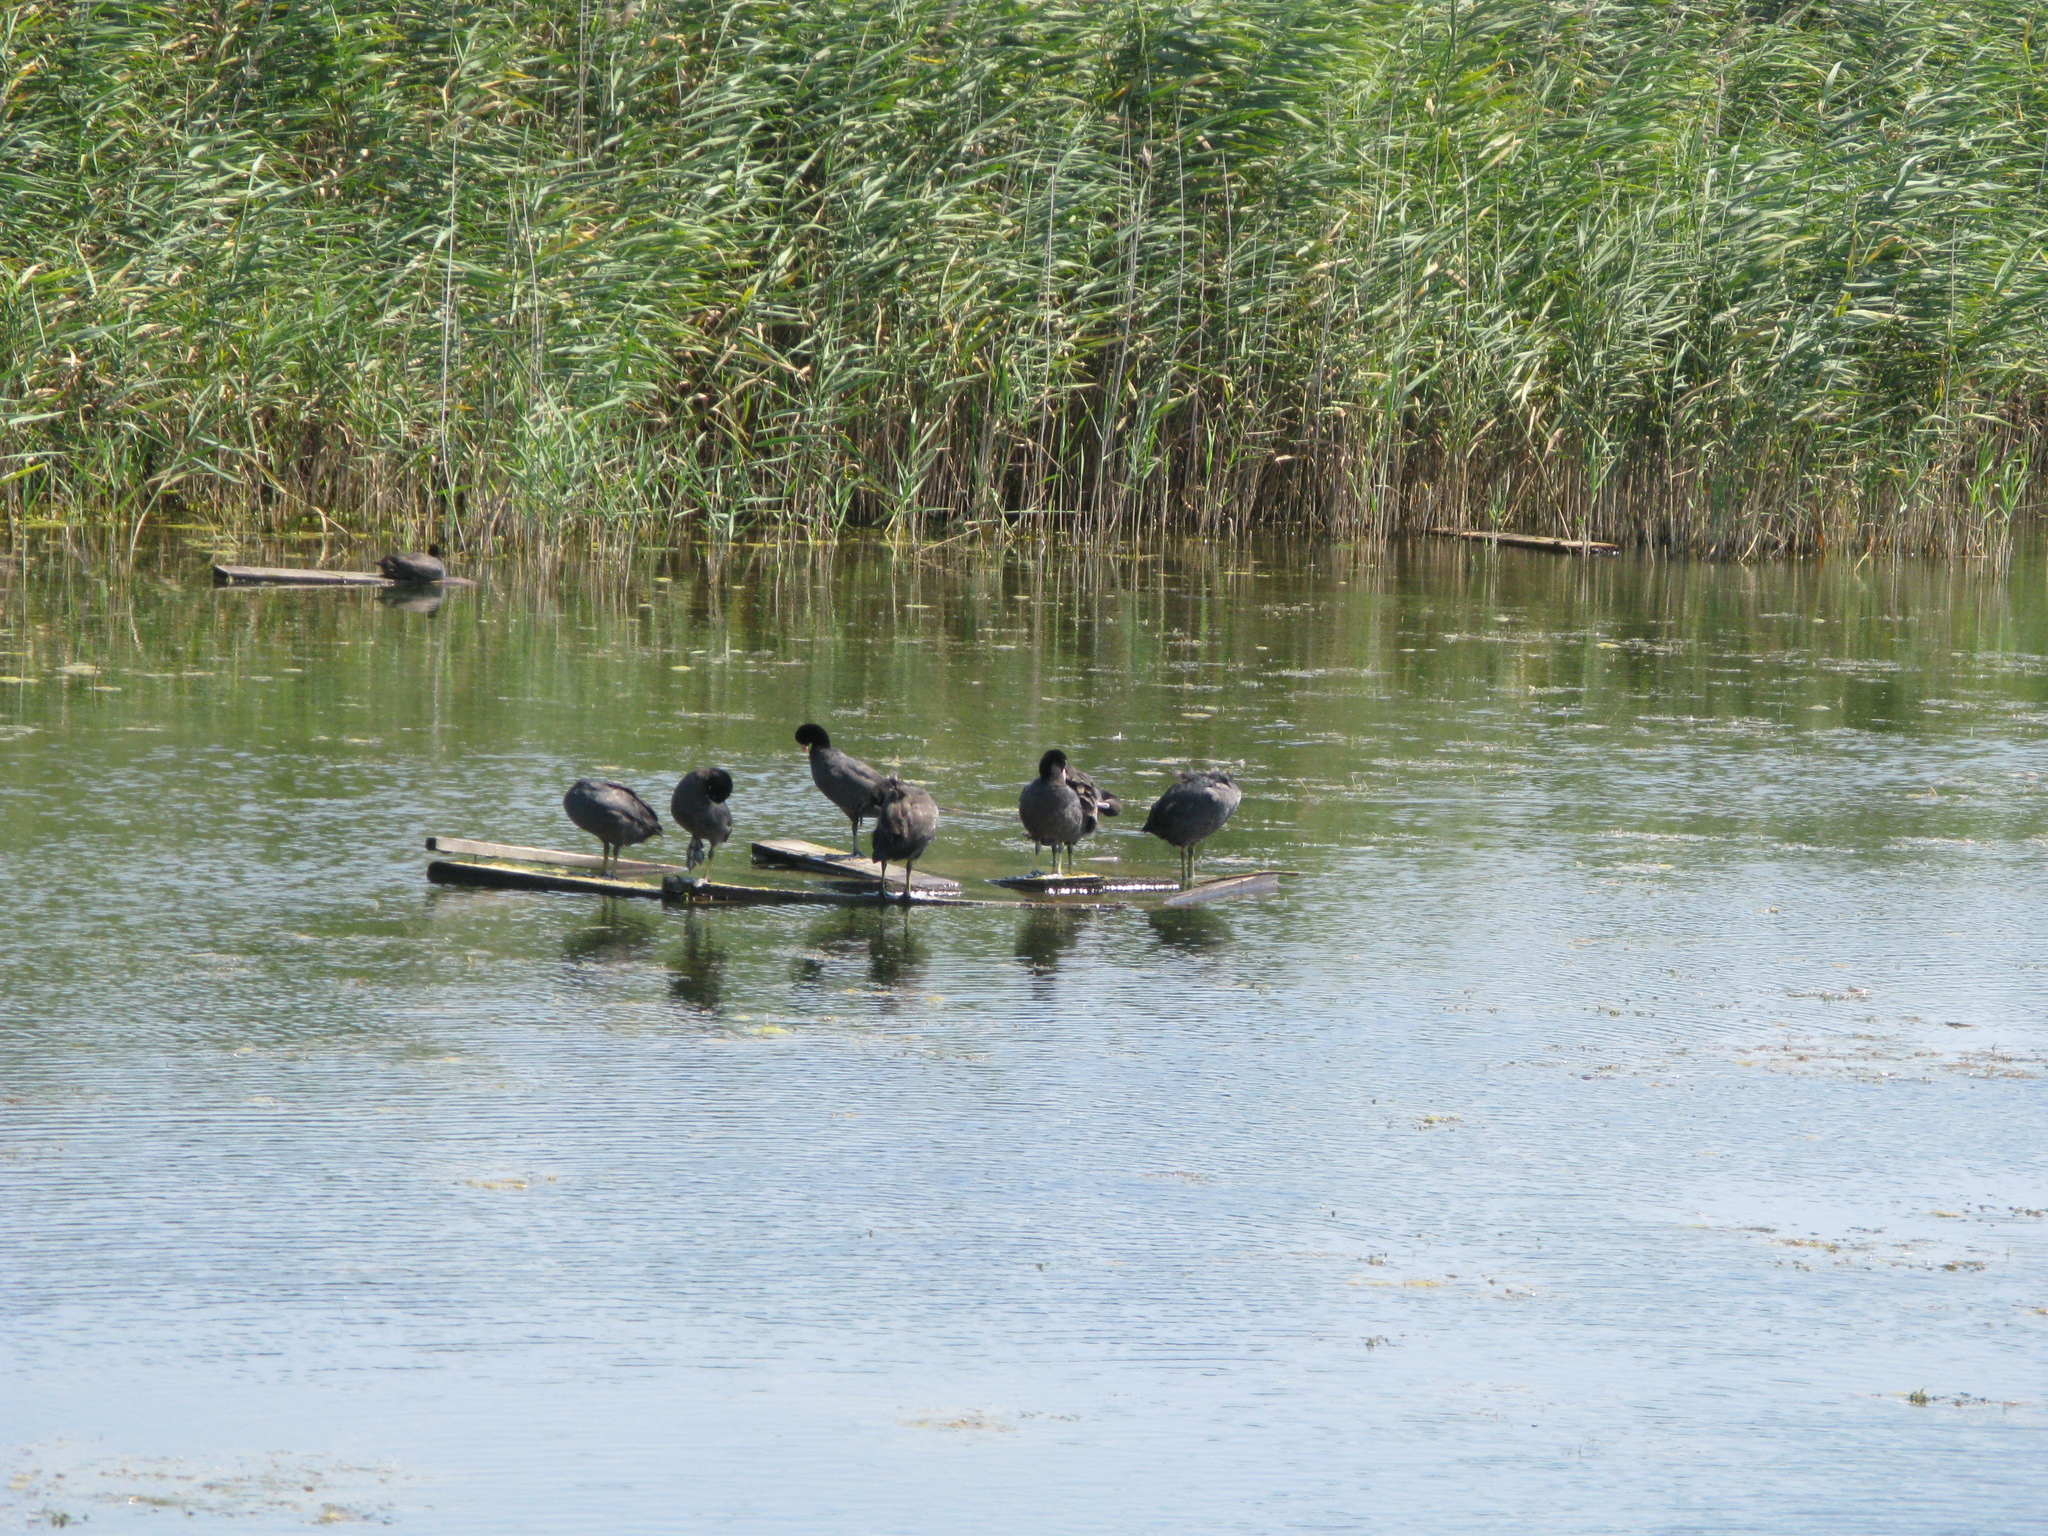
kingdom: Animalia
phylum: Chordata
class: Aves
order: Gruiformes
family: Rallidae
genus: Fulica
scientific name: Fulica atra
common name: Eurasian coot
